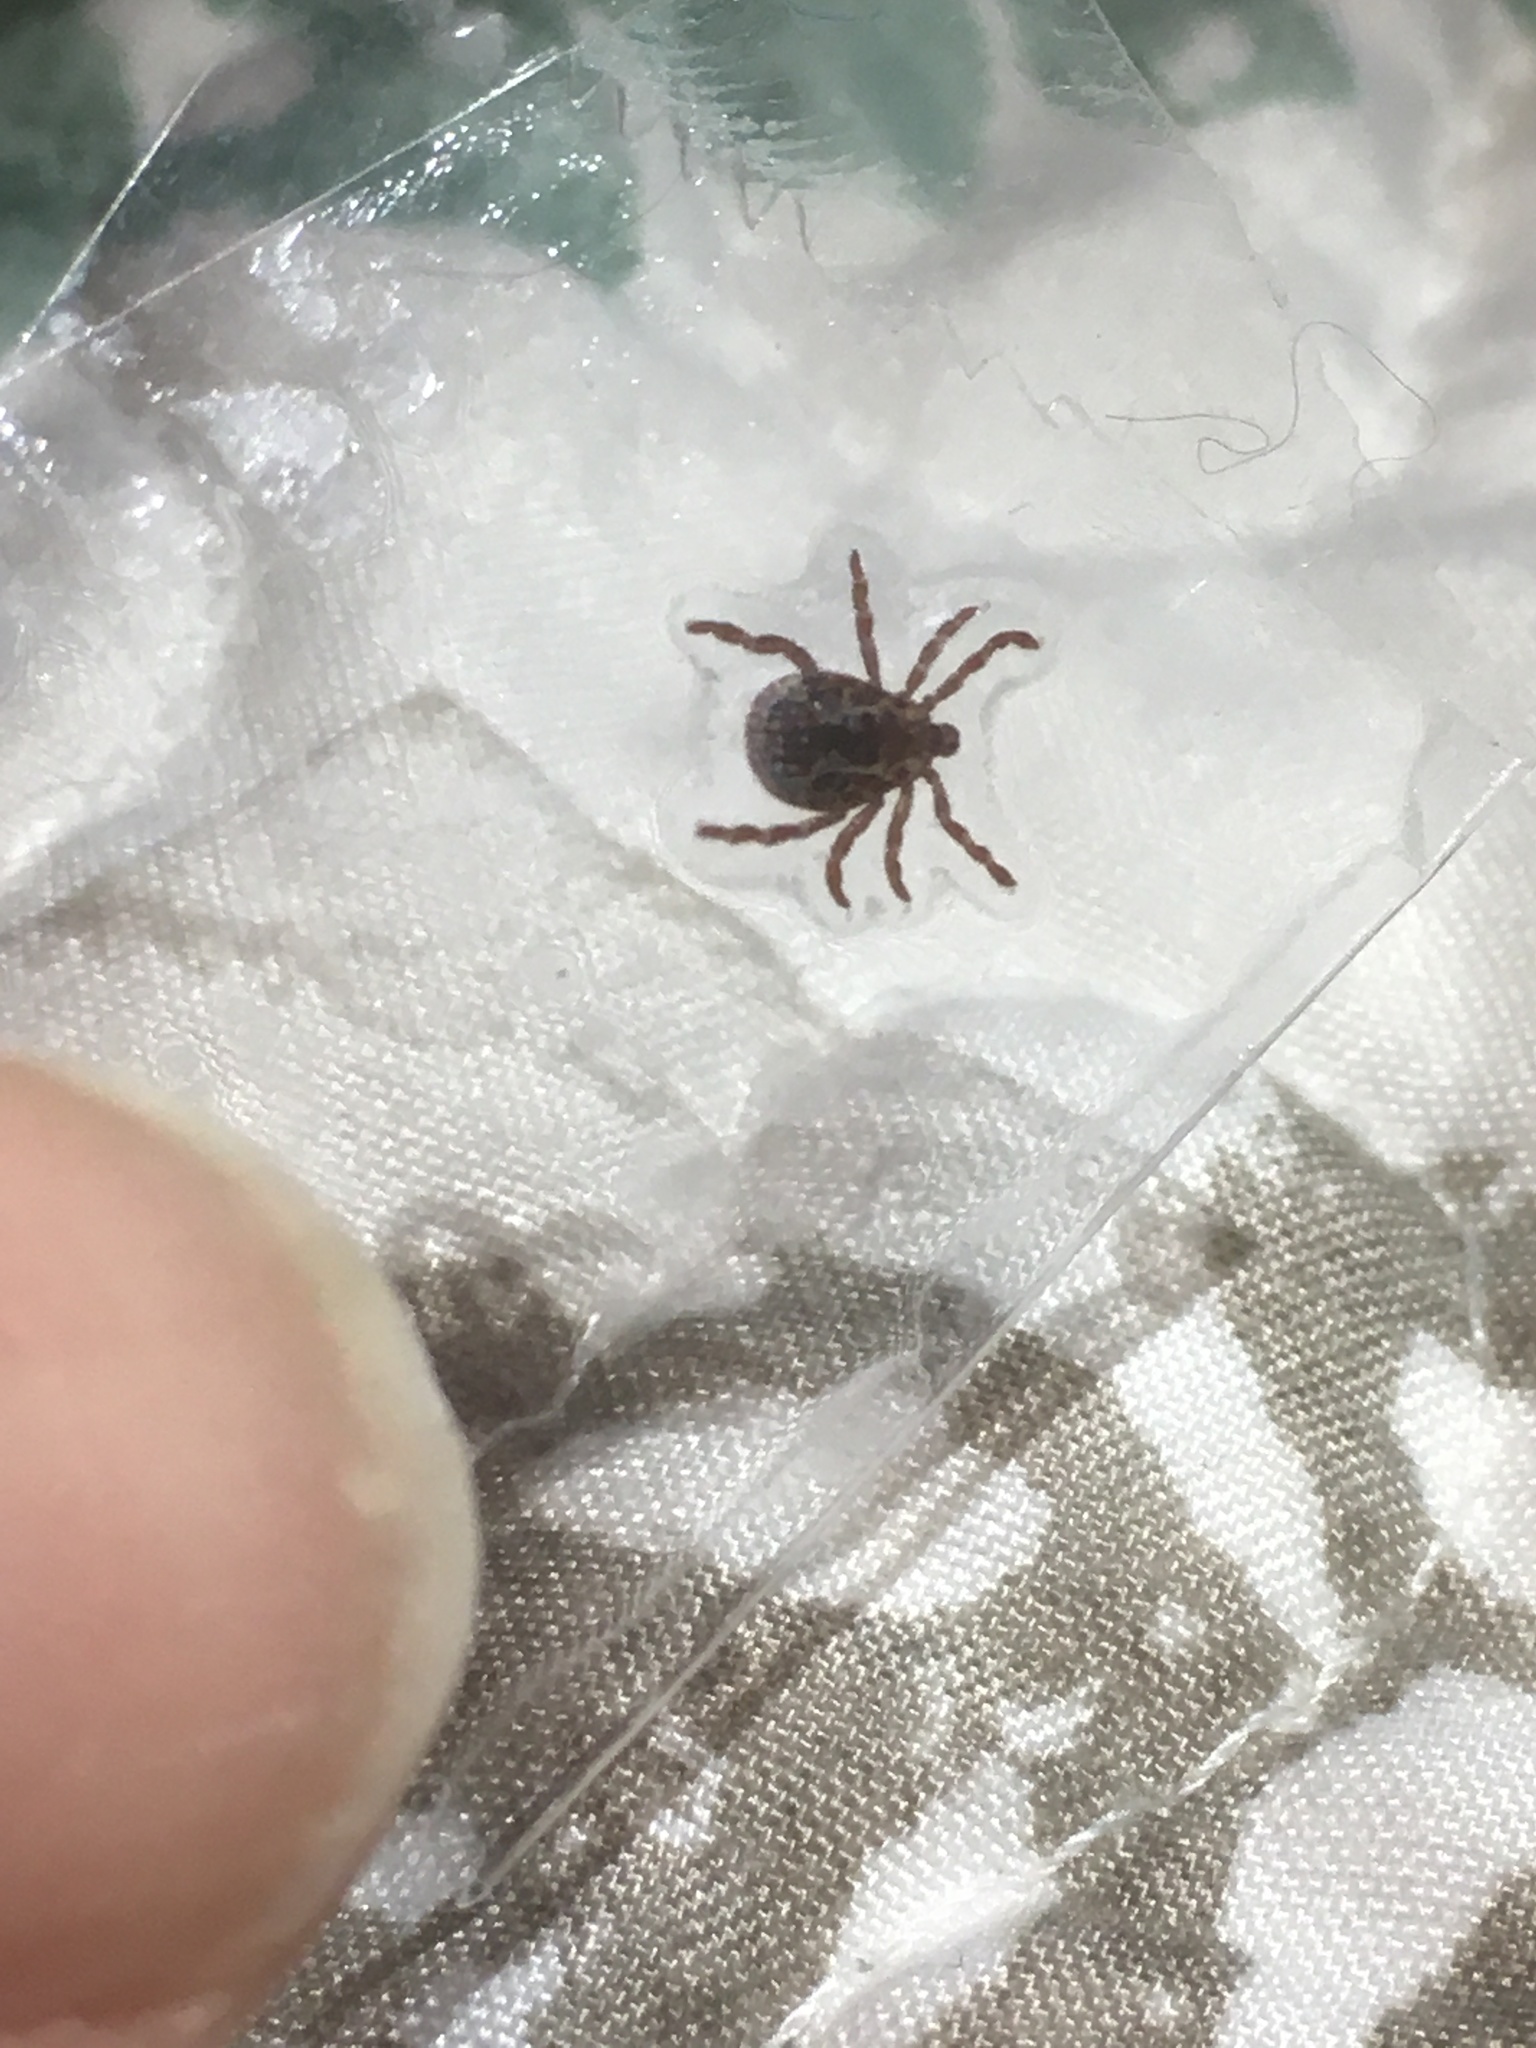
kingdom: Animalia
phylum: Arthropoda
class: Arachnida
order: Ixodida
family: Ixodidae
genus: Dermacentor
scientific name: Dermacentor variabilis
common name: American dog tick
